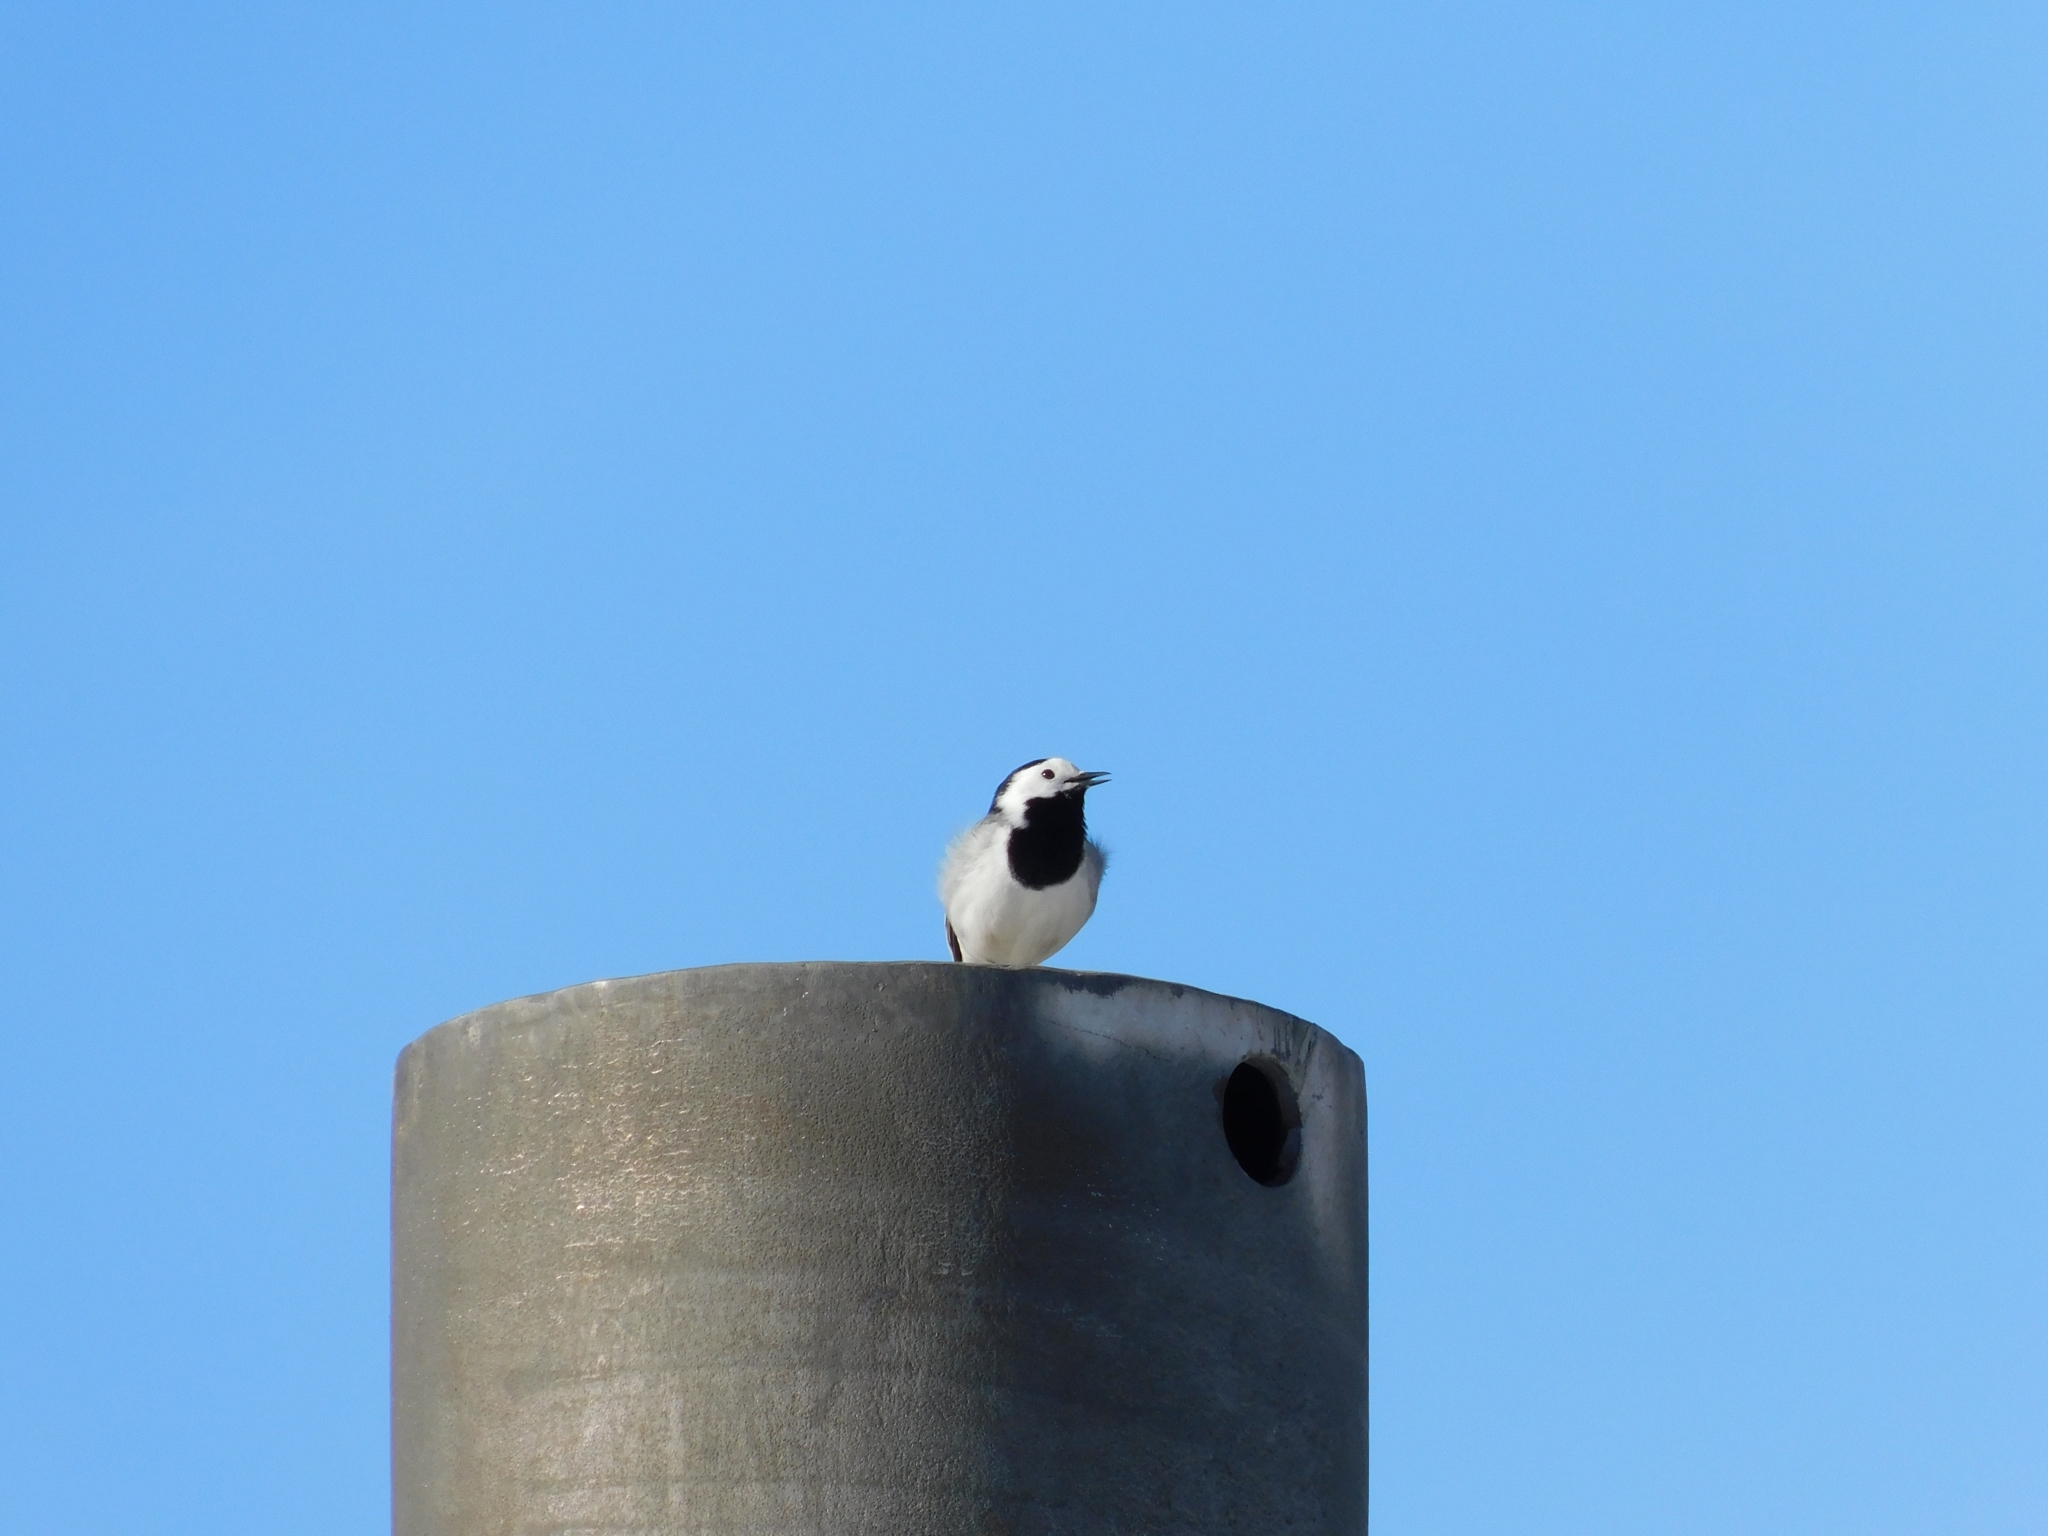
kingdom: Animalia
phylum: Chordata
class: Aves
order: Passeriformes
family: Motacillidae
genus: Motacilla
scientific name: Motacilla alba
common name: White wagtail
